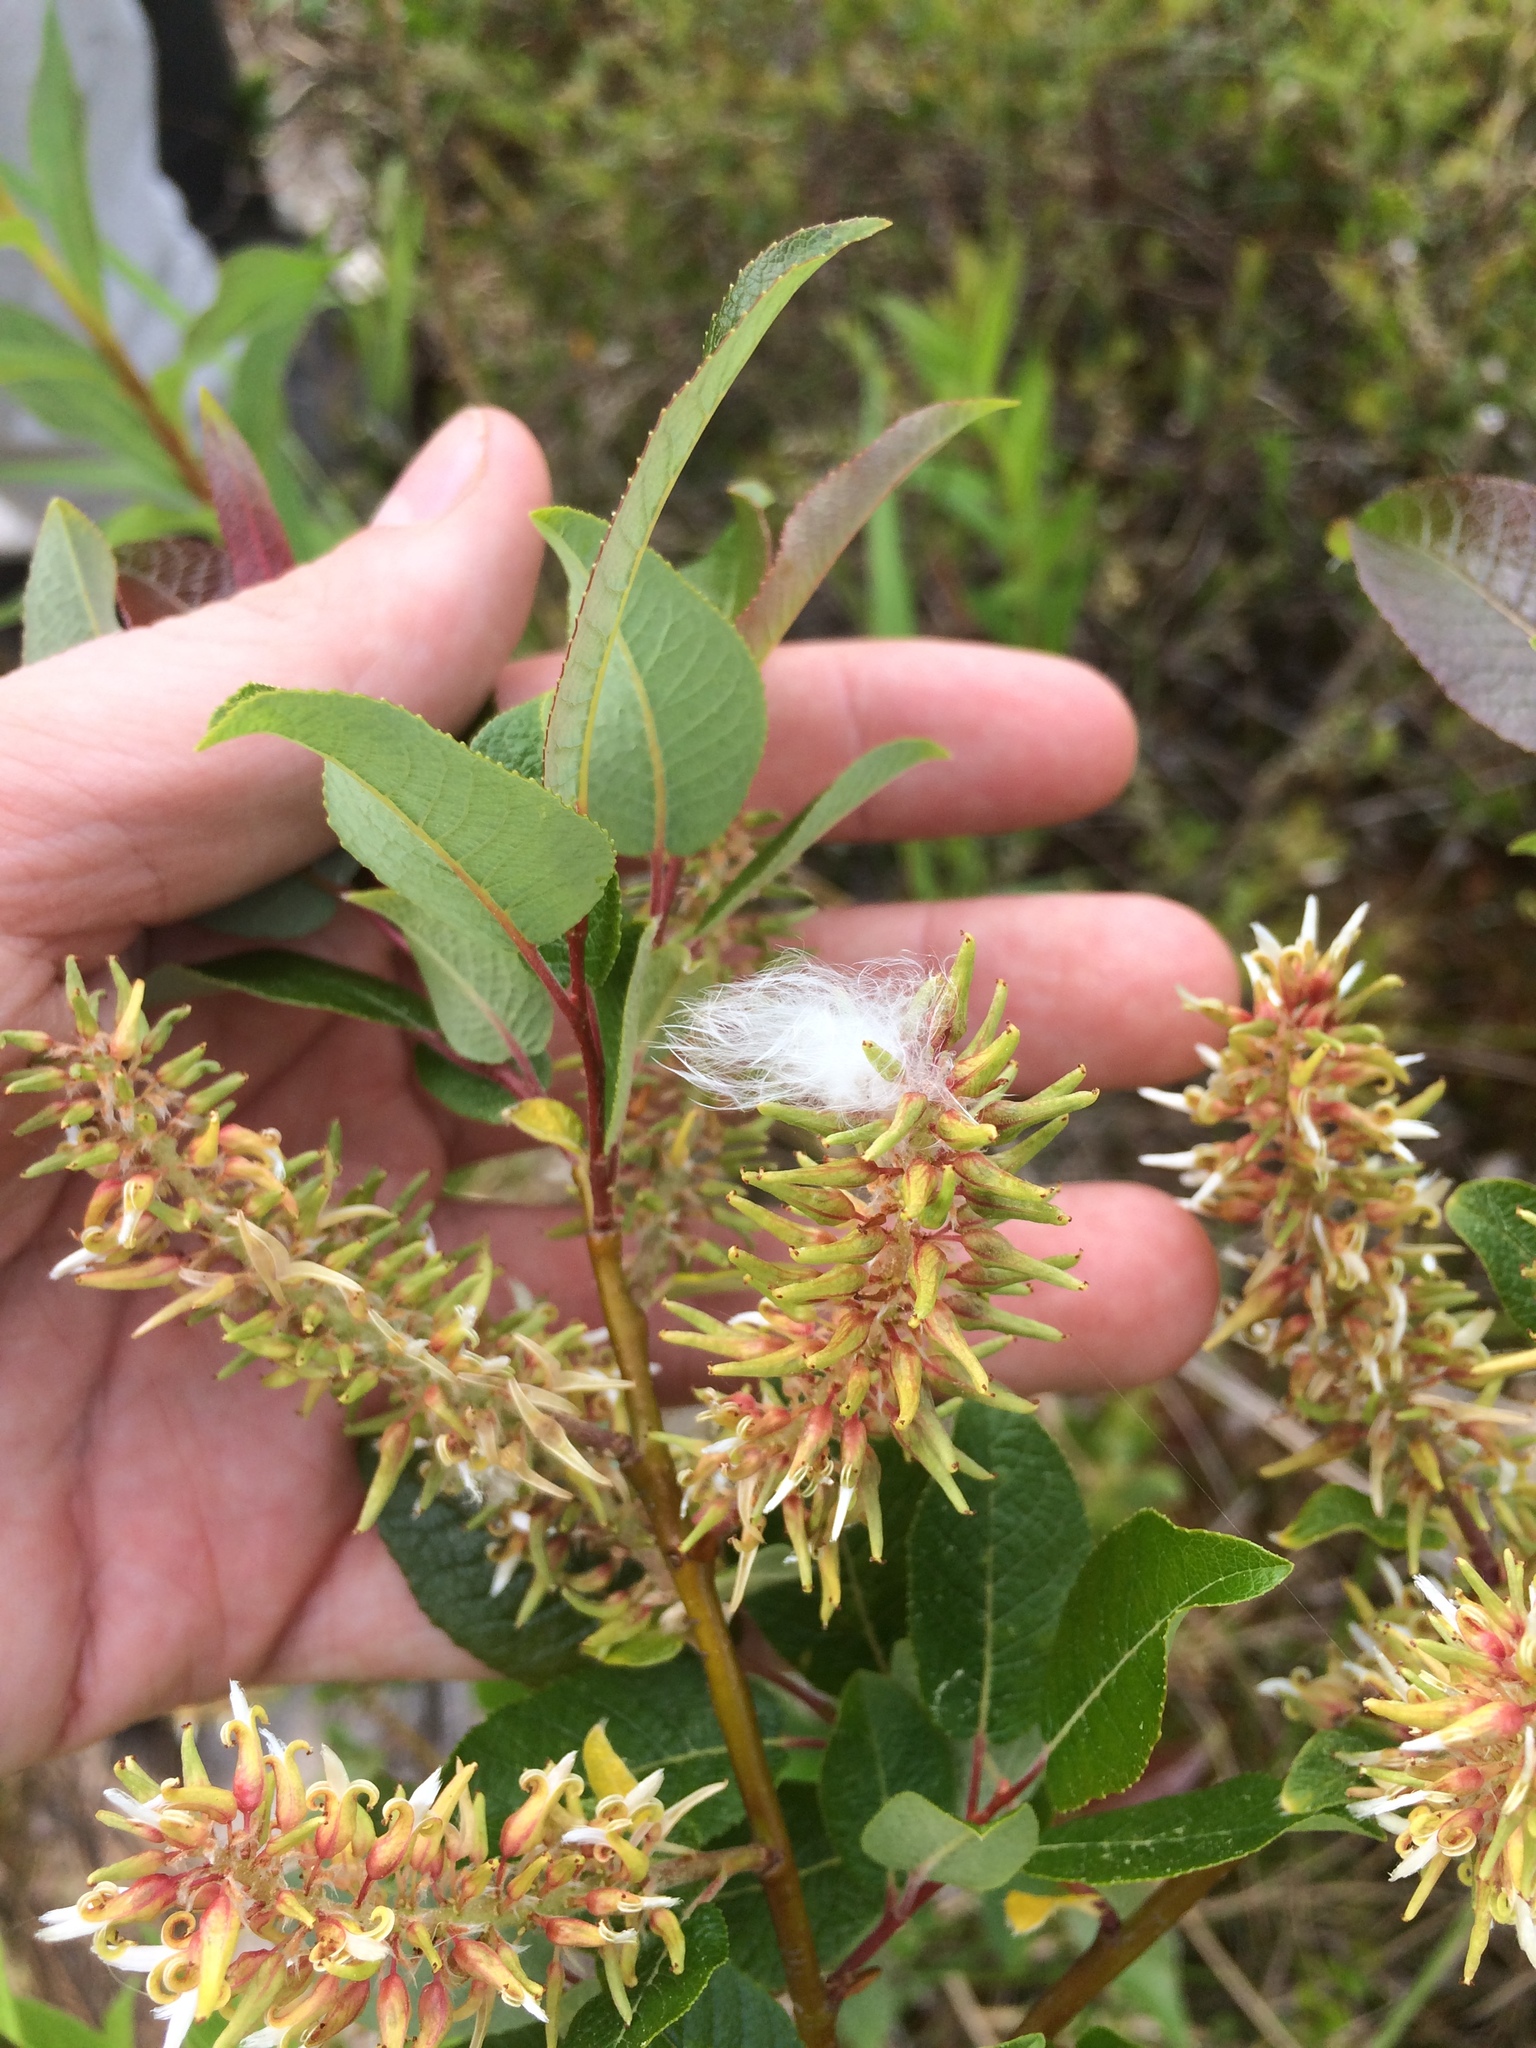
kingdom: Plantae
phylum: Tracheophyta
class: Magnoliopsida
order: Malpighiales
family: Salicaceae
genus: Salix
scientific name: Salix pyrifolia
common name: Balsam willow
